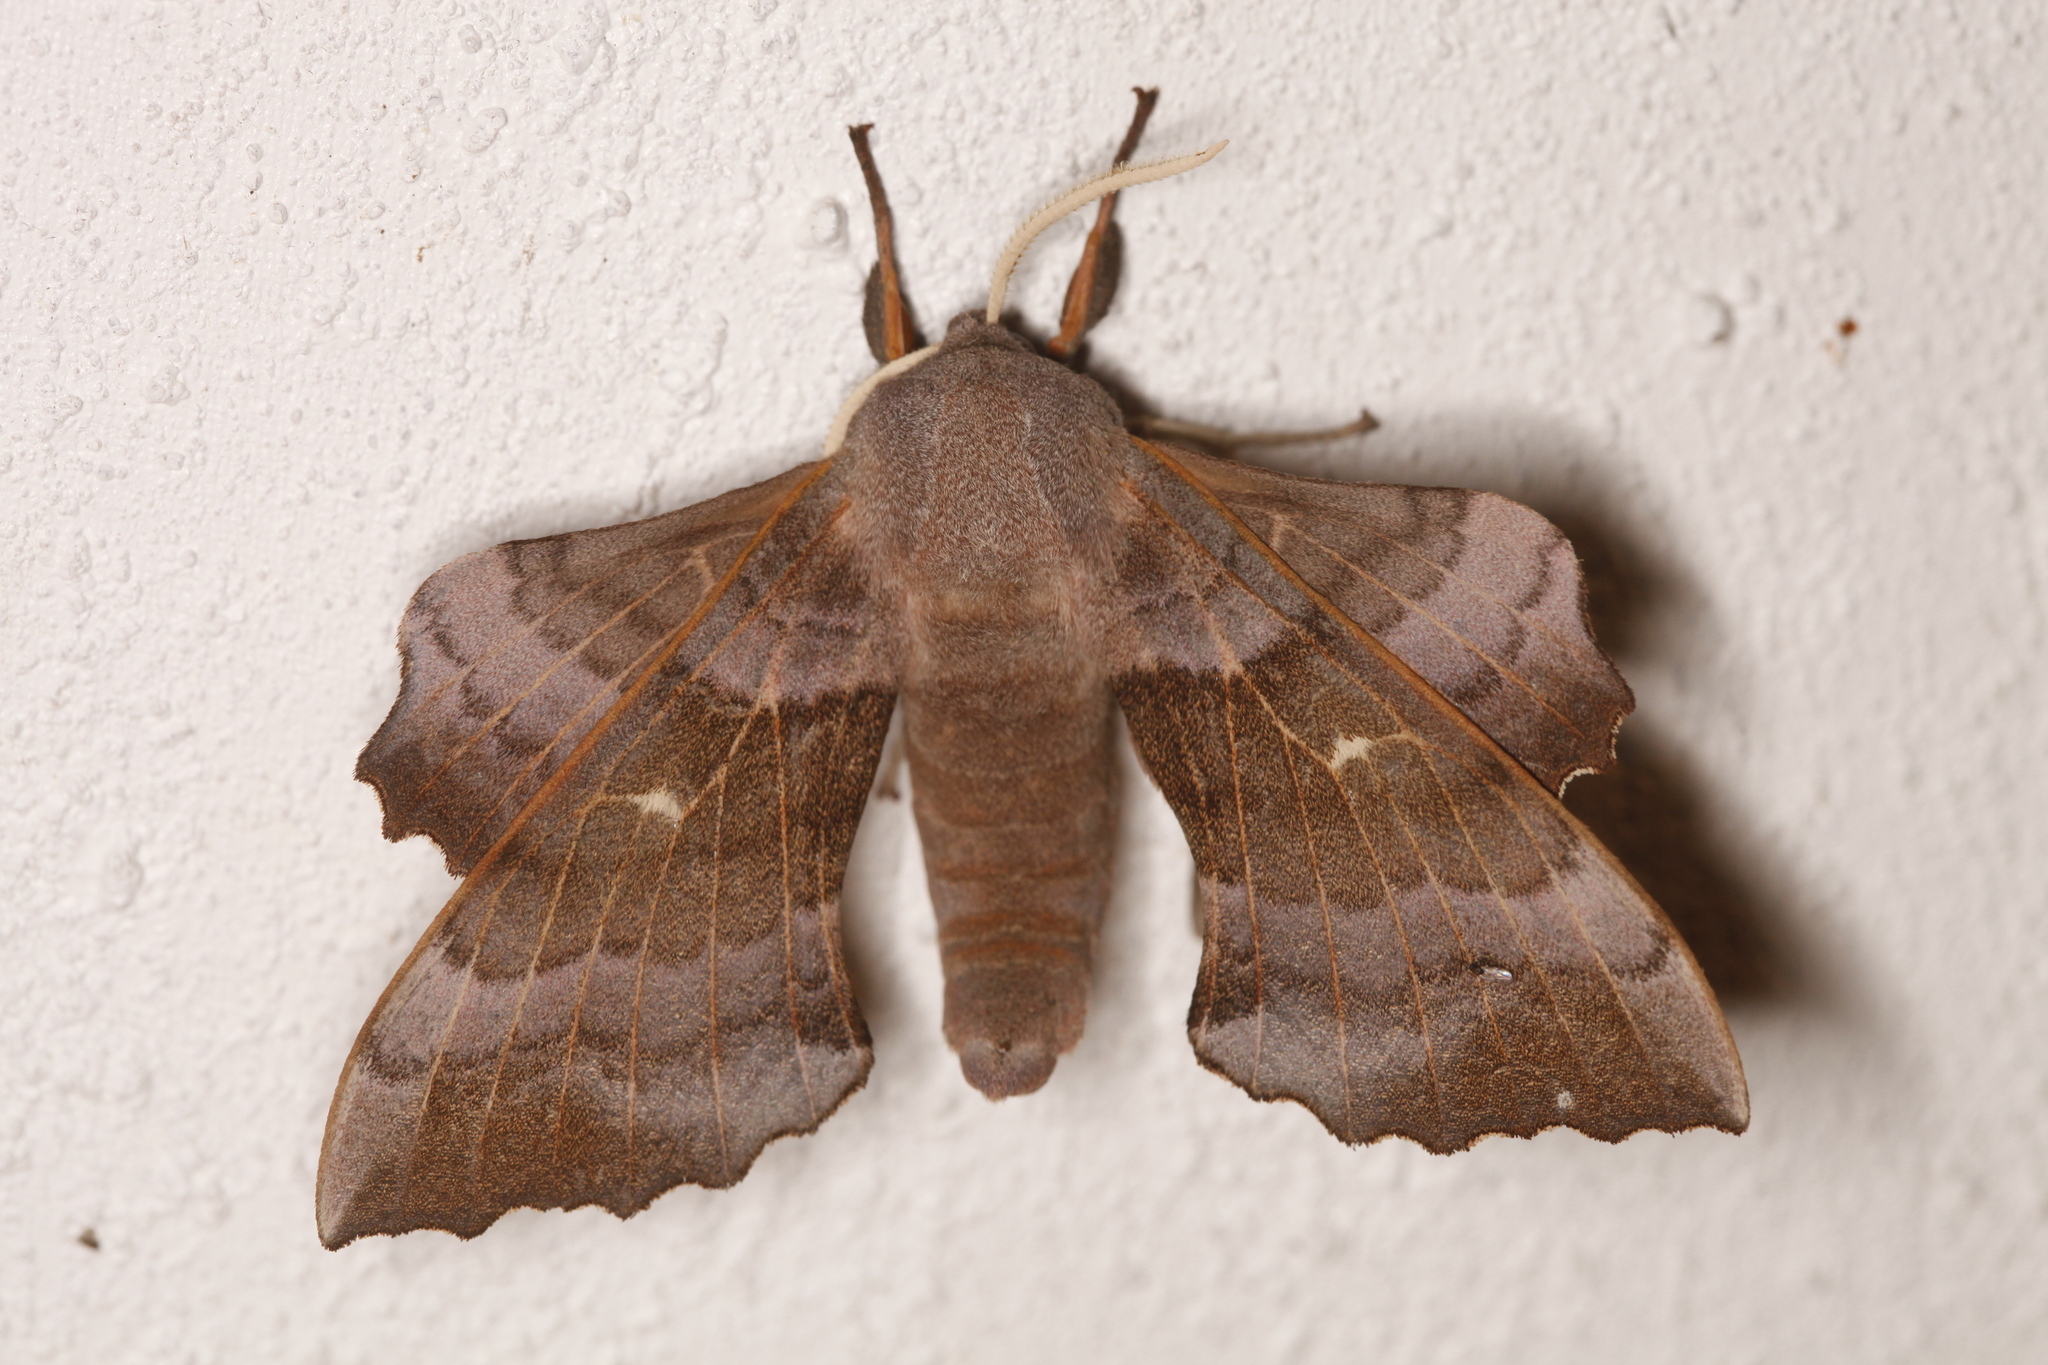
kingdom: Animalia
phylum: Arthropoda
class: Insecta
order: Lepidoptera
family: Sphingidae
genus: Laothoe
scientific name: Laothoe populi
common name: Poplar hawk-moth
